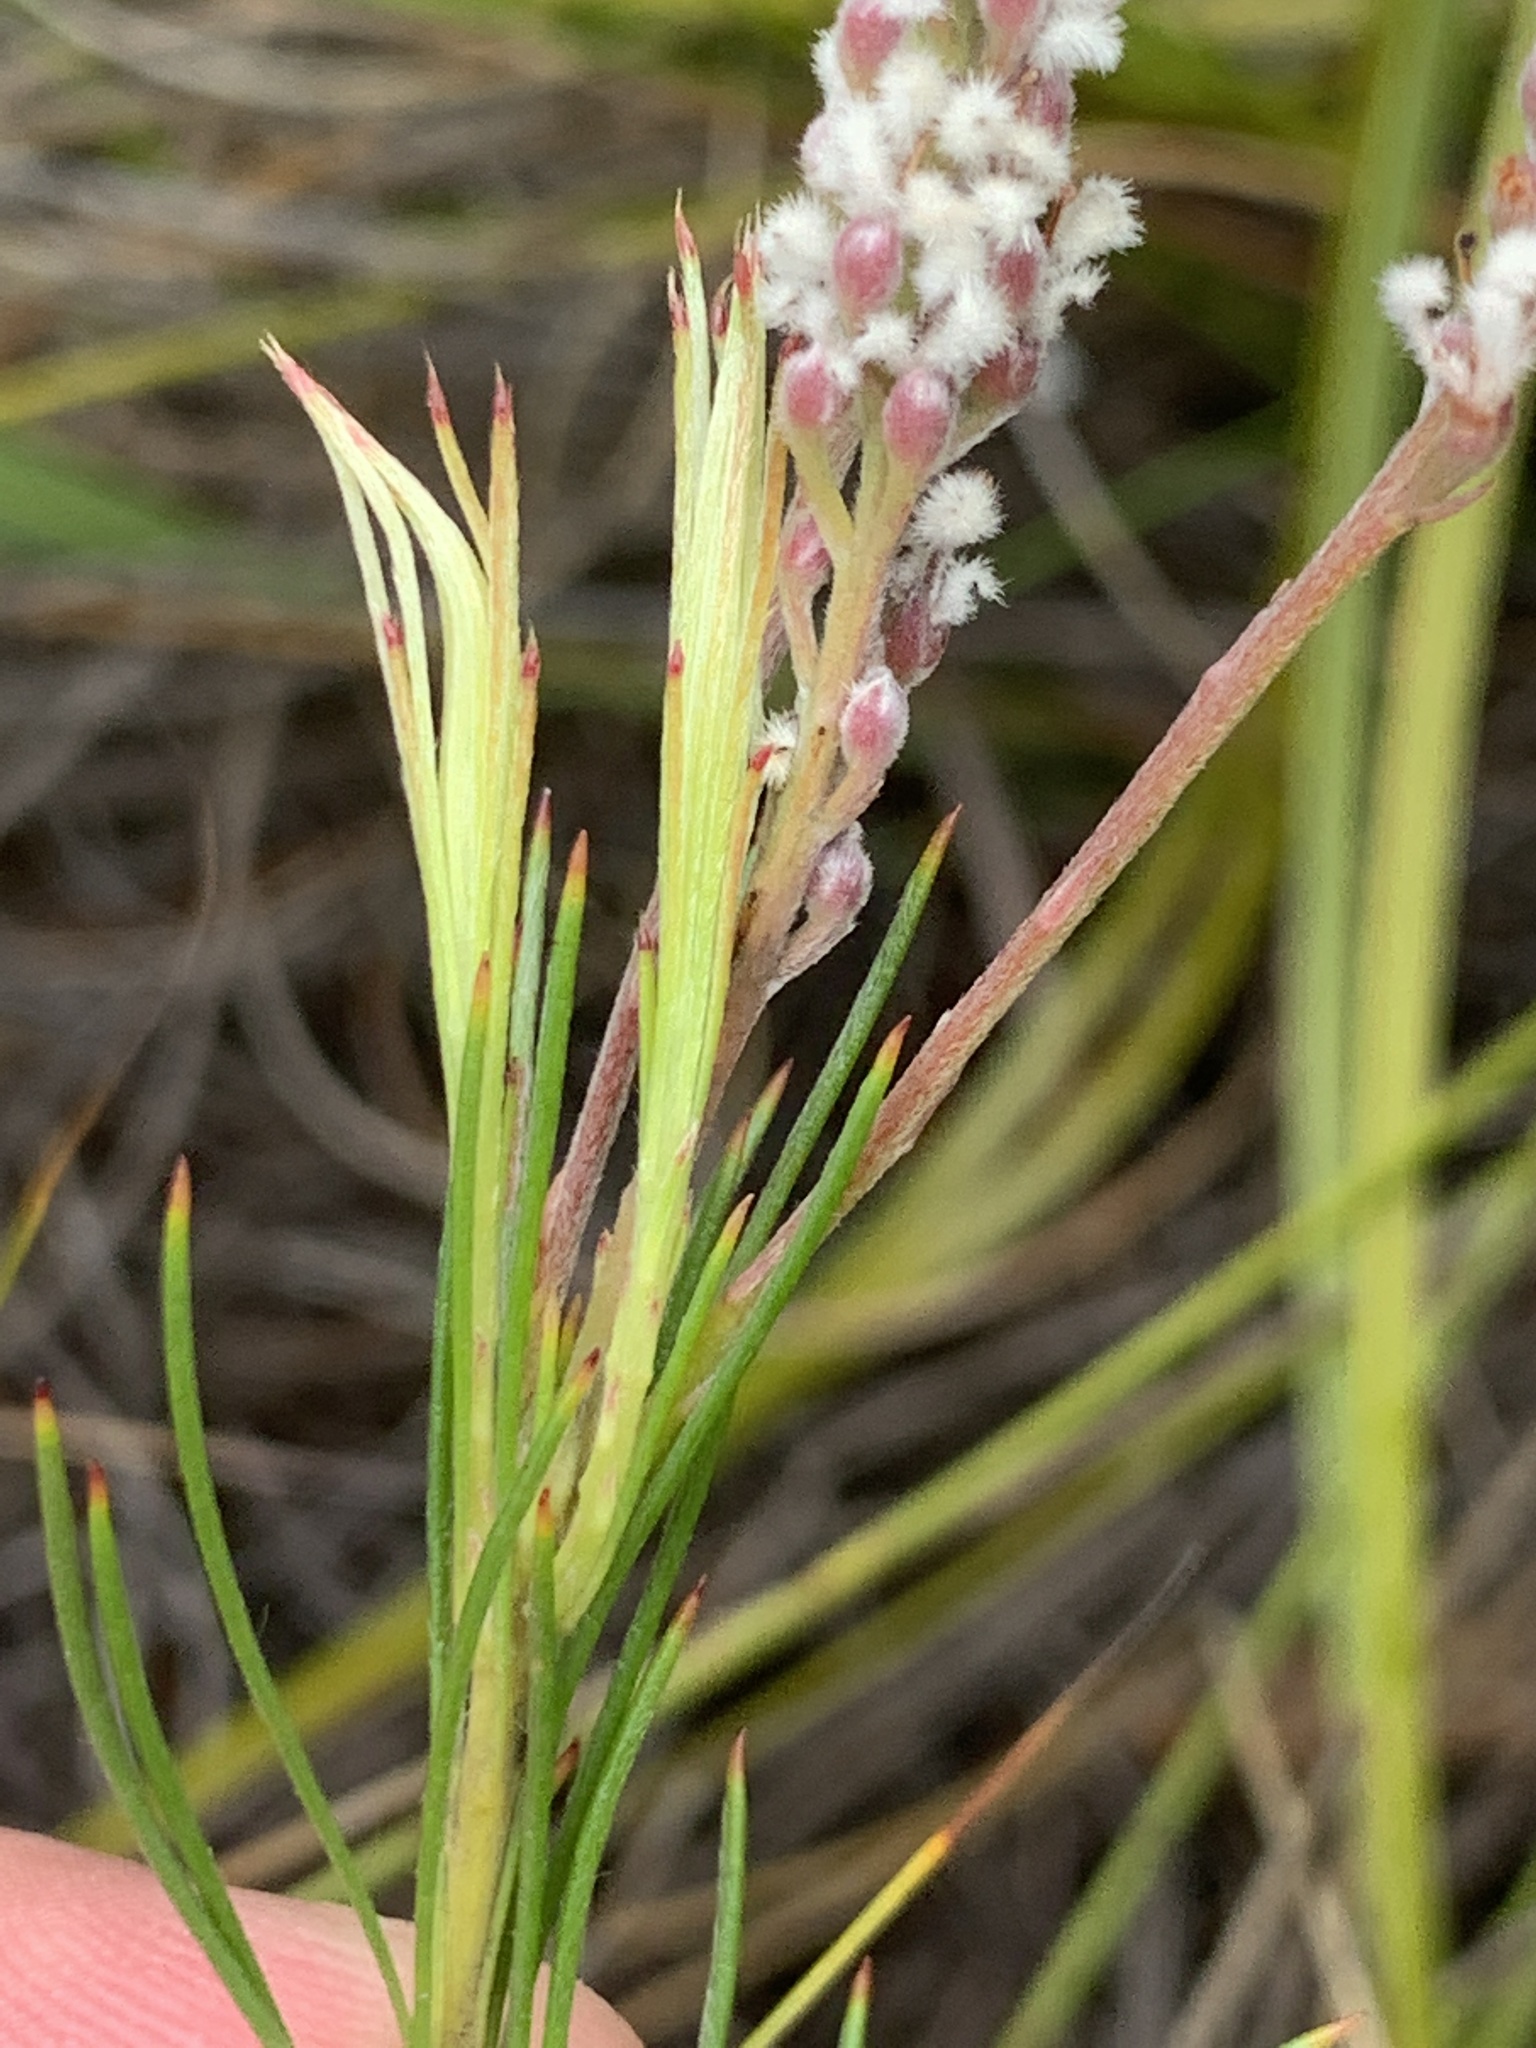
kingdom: Plantae
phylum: Tracheophyta
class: Magnoliopsida
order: Proteales
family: Proteaceae
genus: Spatalla
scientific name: Spatalla racemosa
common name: Lax-stalked spoon
